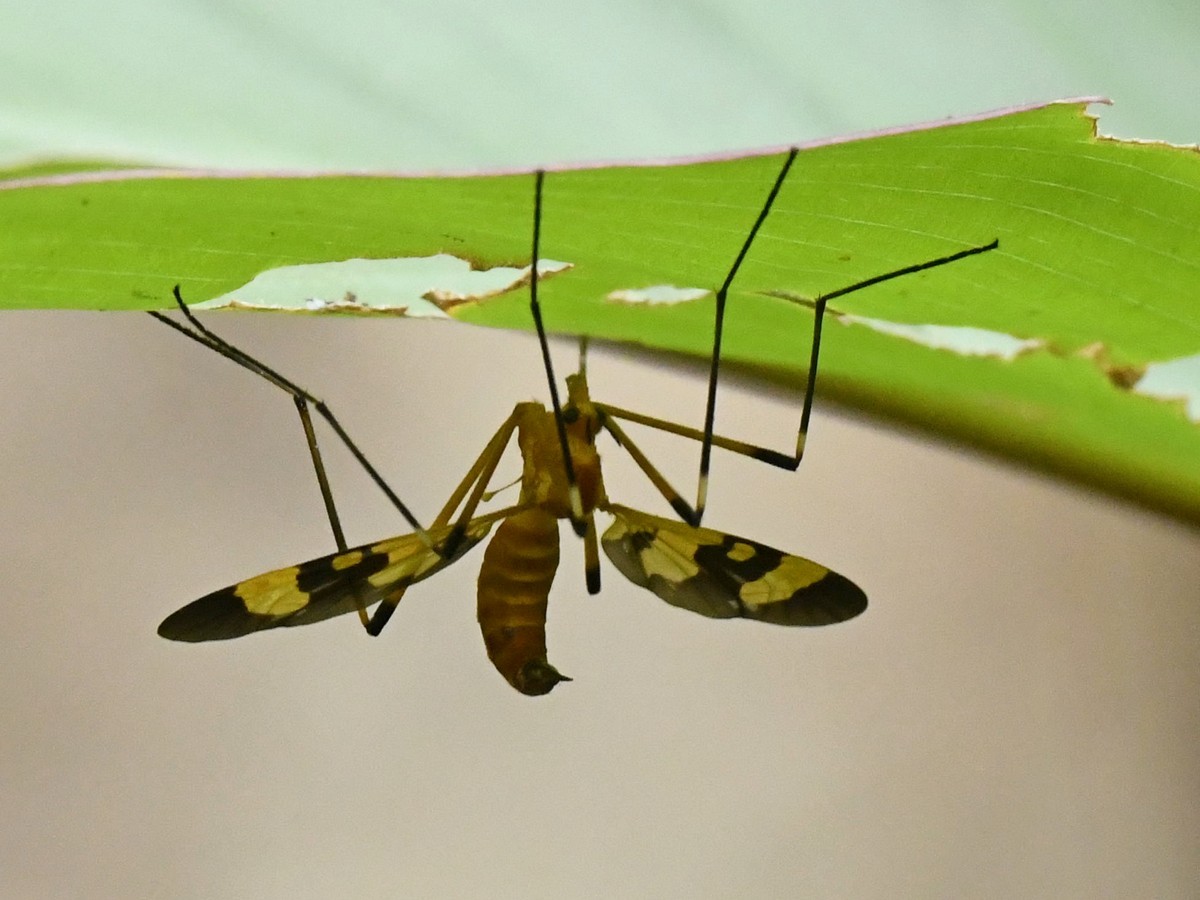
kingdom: Animalia
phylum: Arthropoda
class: Insecta
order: Diptera
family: Tipulidae
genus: Pselliophora
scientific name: Pselliophora laeta
